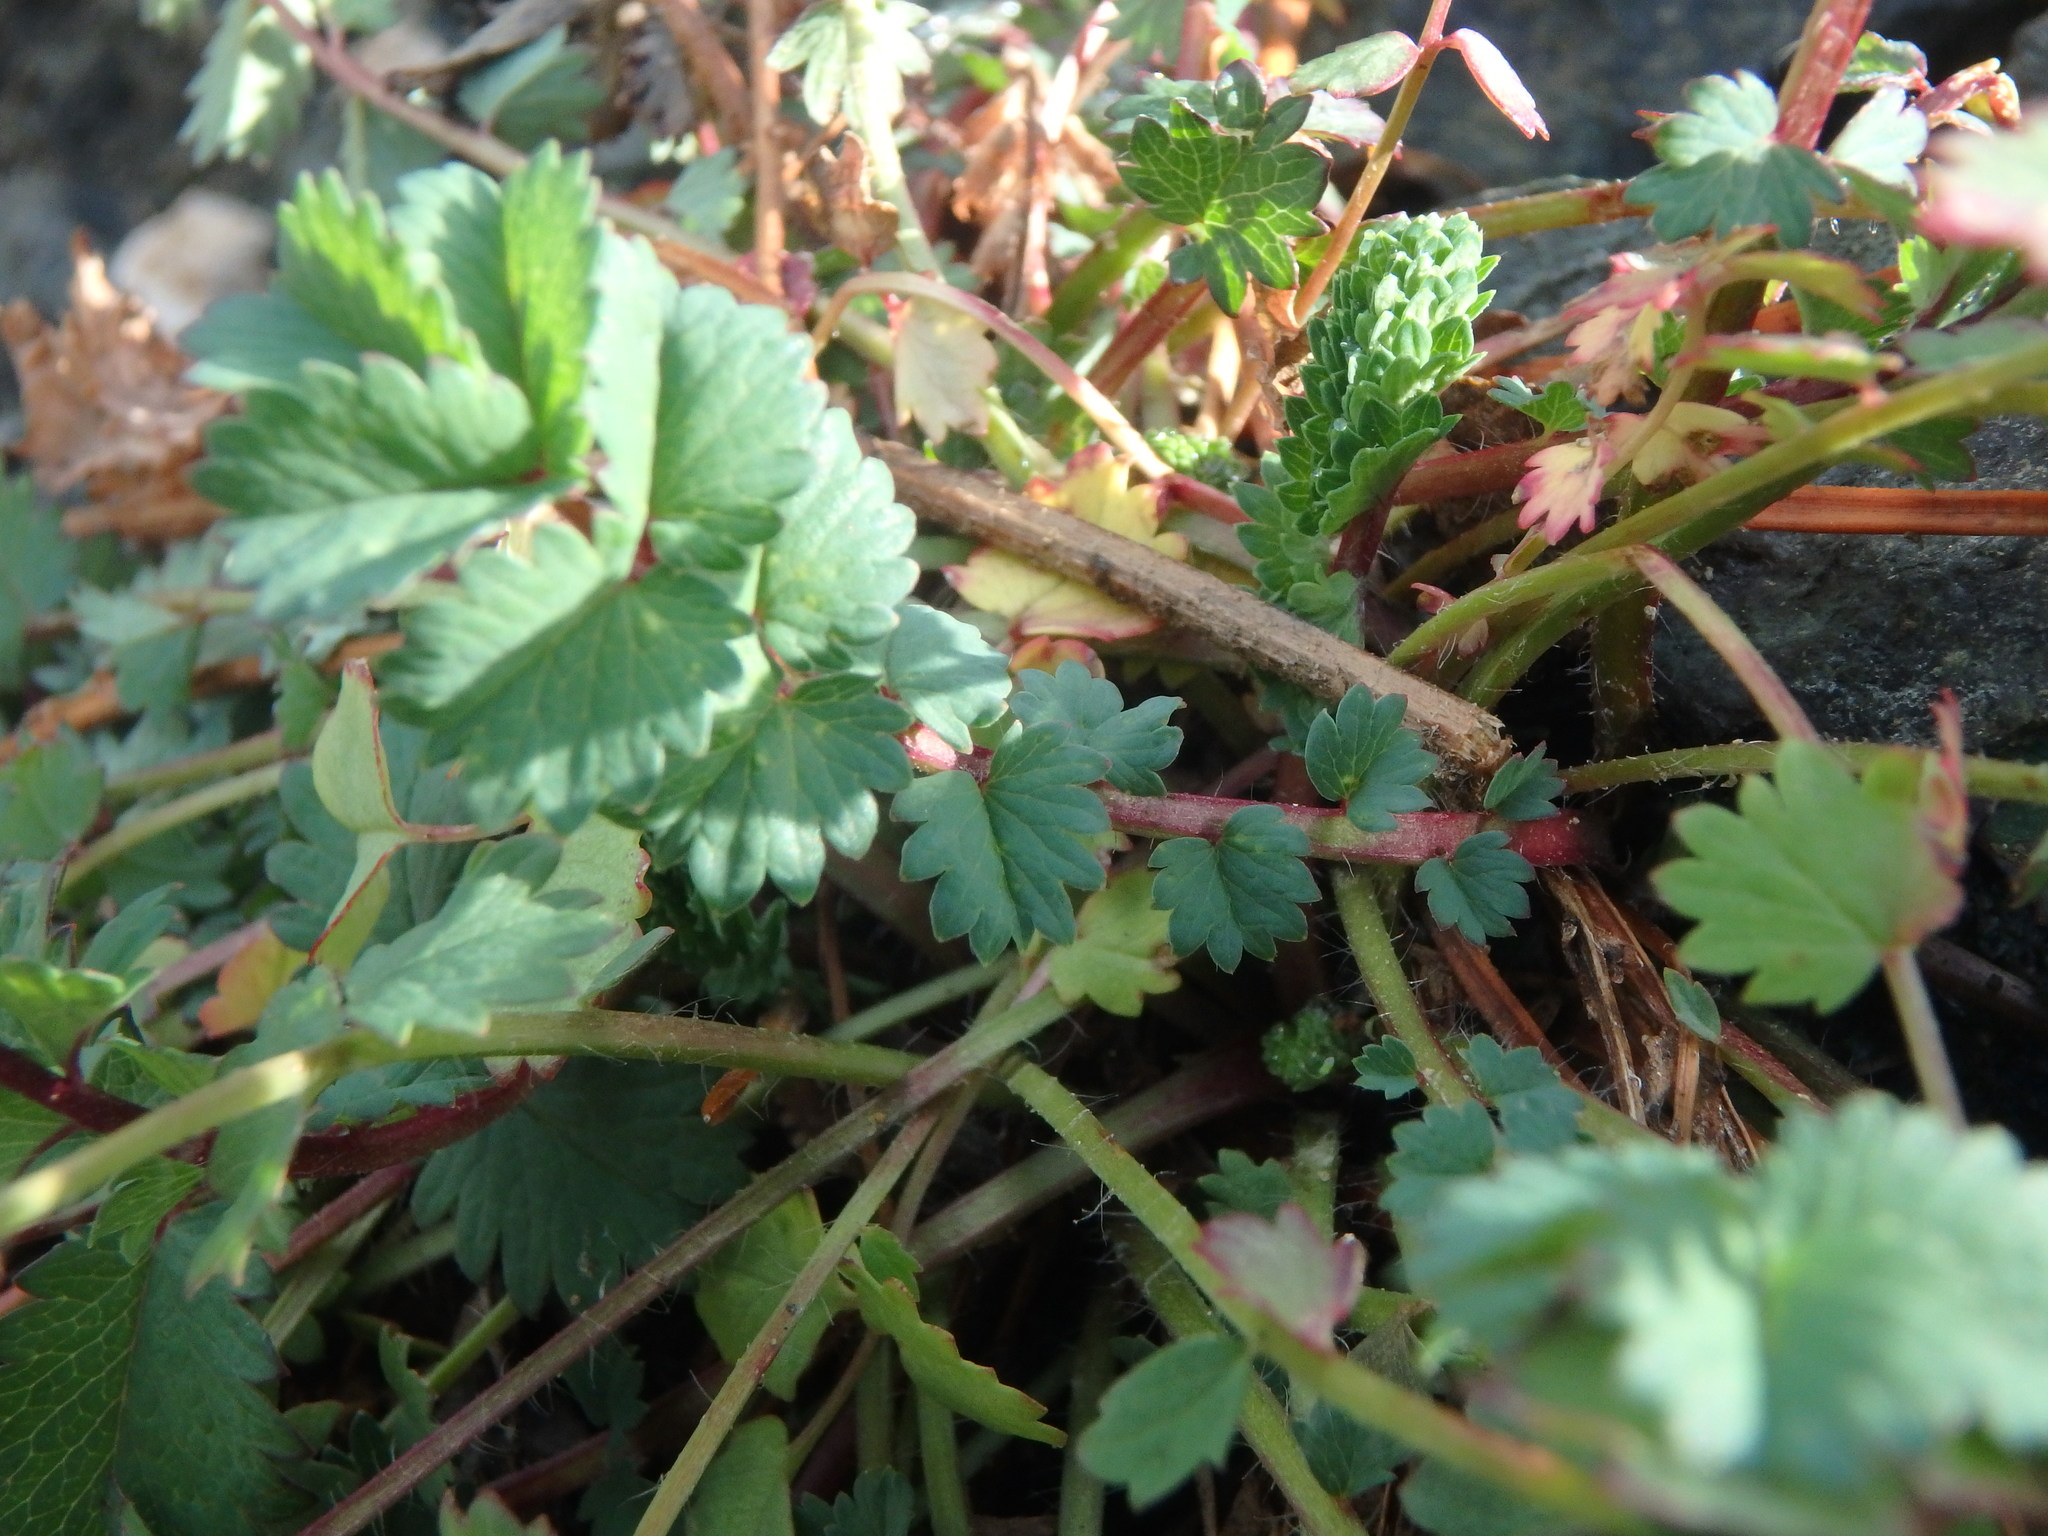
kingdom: Plantae
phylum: Tracheophyta
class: Magnoliopsida
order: Rosales
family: Rosaceae
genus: Poterium
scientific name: Poterium sanguisorba
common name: Salad burnet
